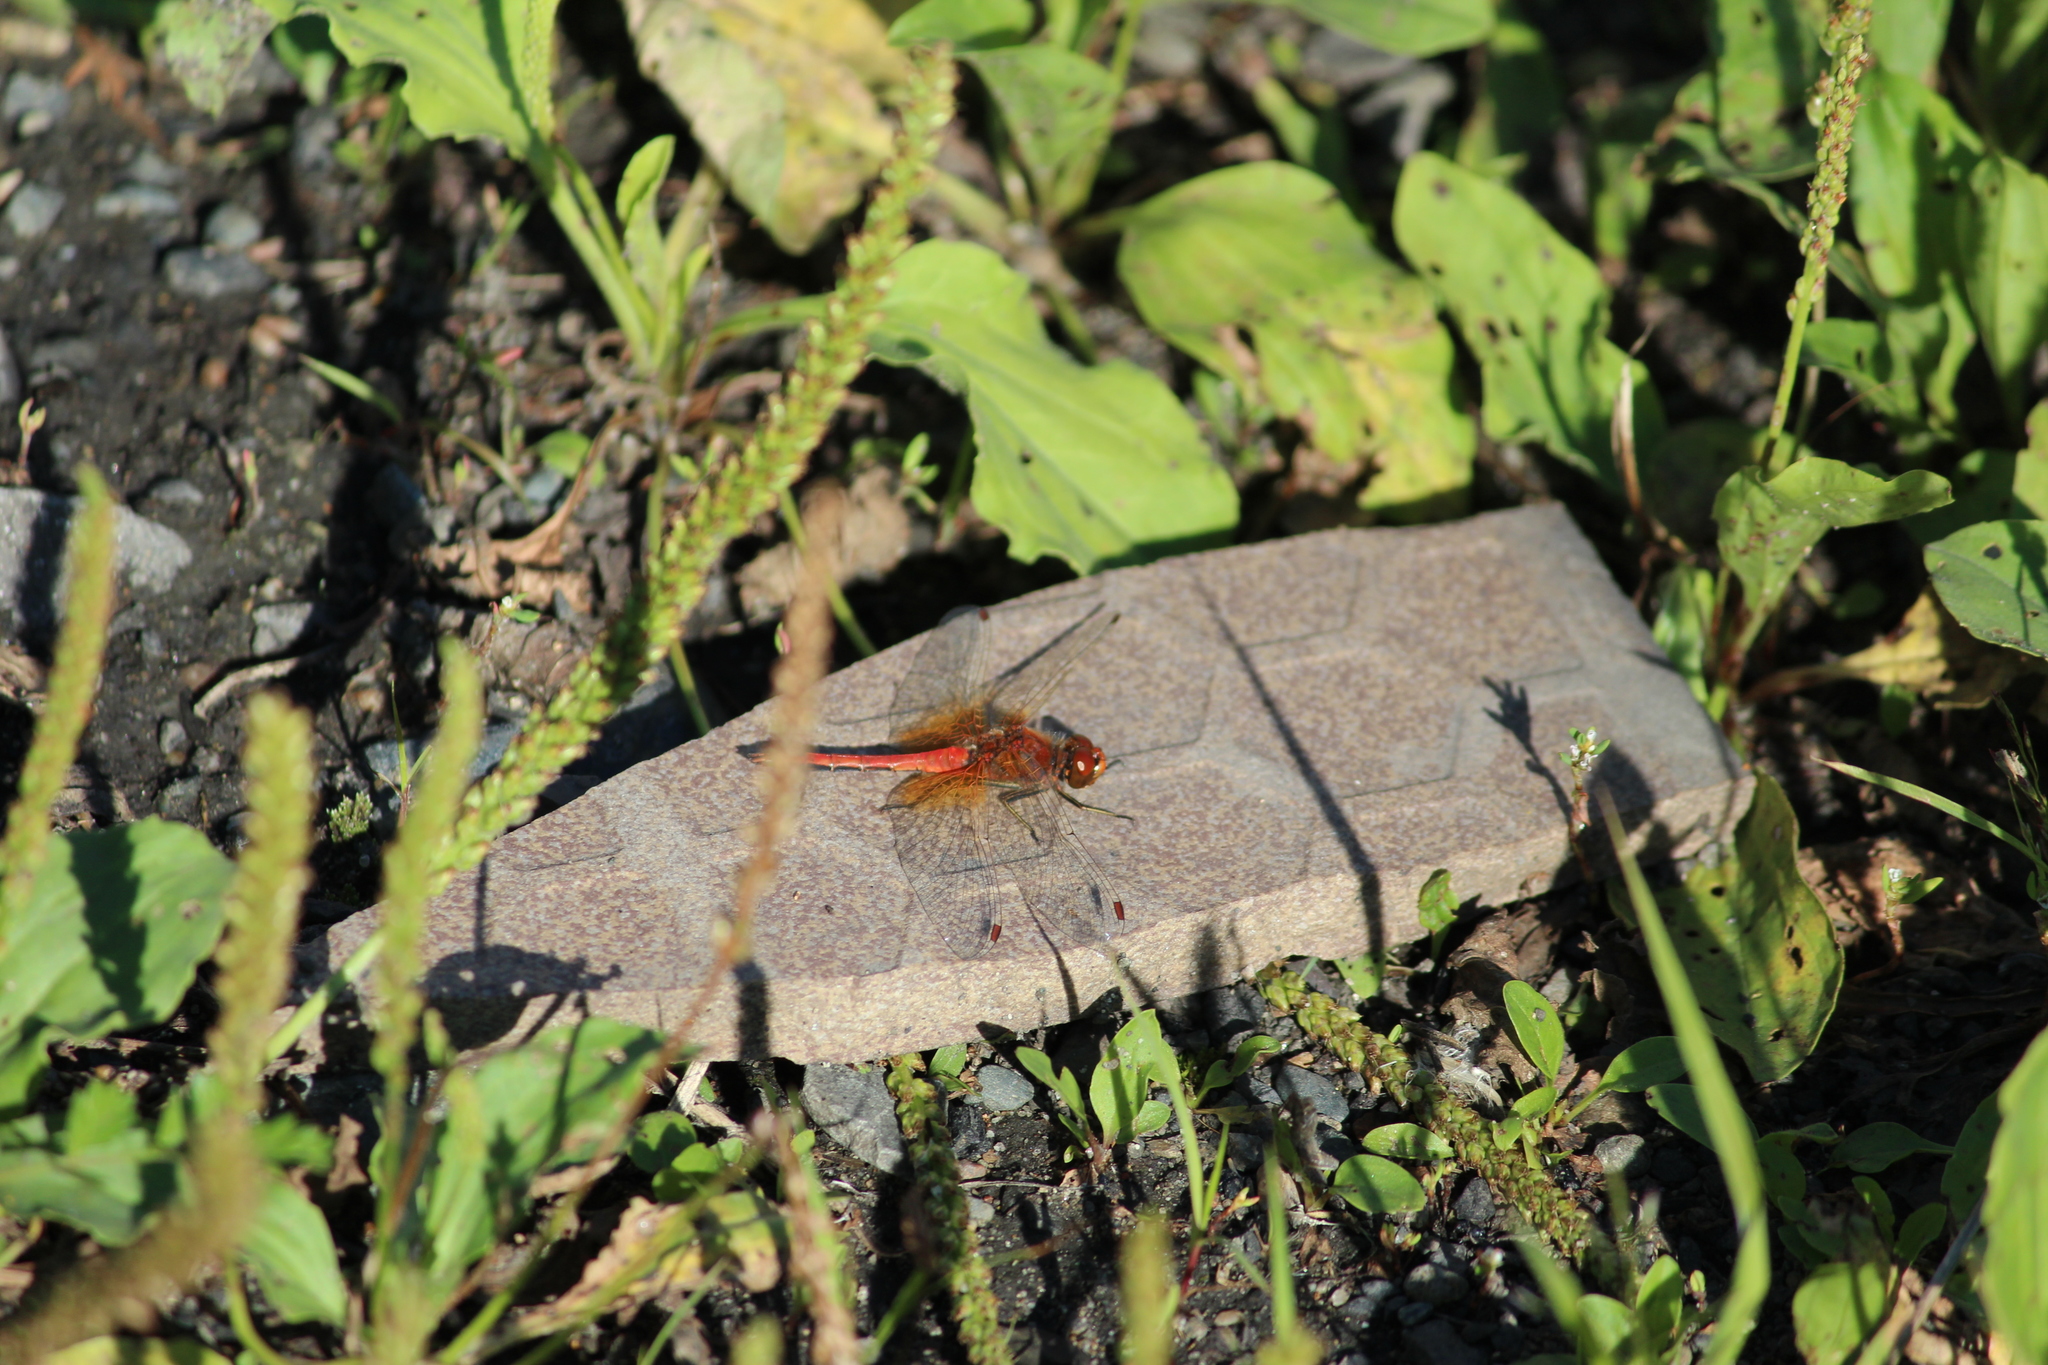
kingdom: Animalia
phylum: Arthropoda
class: Insecta
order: Odonata
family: Libellulidae
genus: Sympetrum
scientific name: Sympetrum flaveolum
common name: Yellow-winged darter
